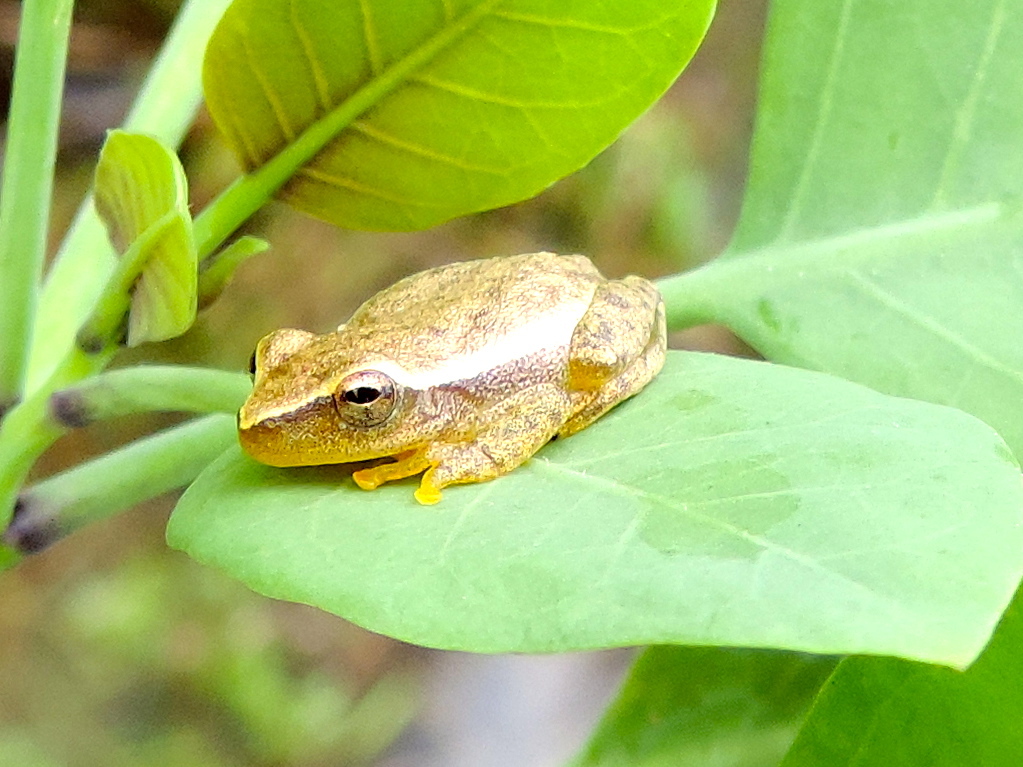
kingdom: Animalia
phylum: Chordata
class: Amphibia
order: Anura
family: Hylidae
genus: Tlalocohyla
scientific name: Tlalocohyla smithii
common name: Dwarf mexican treefrog
